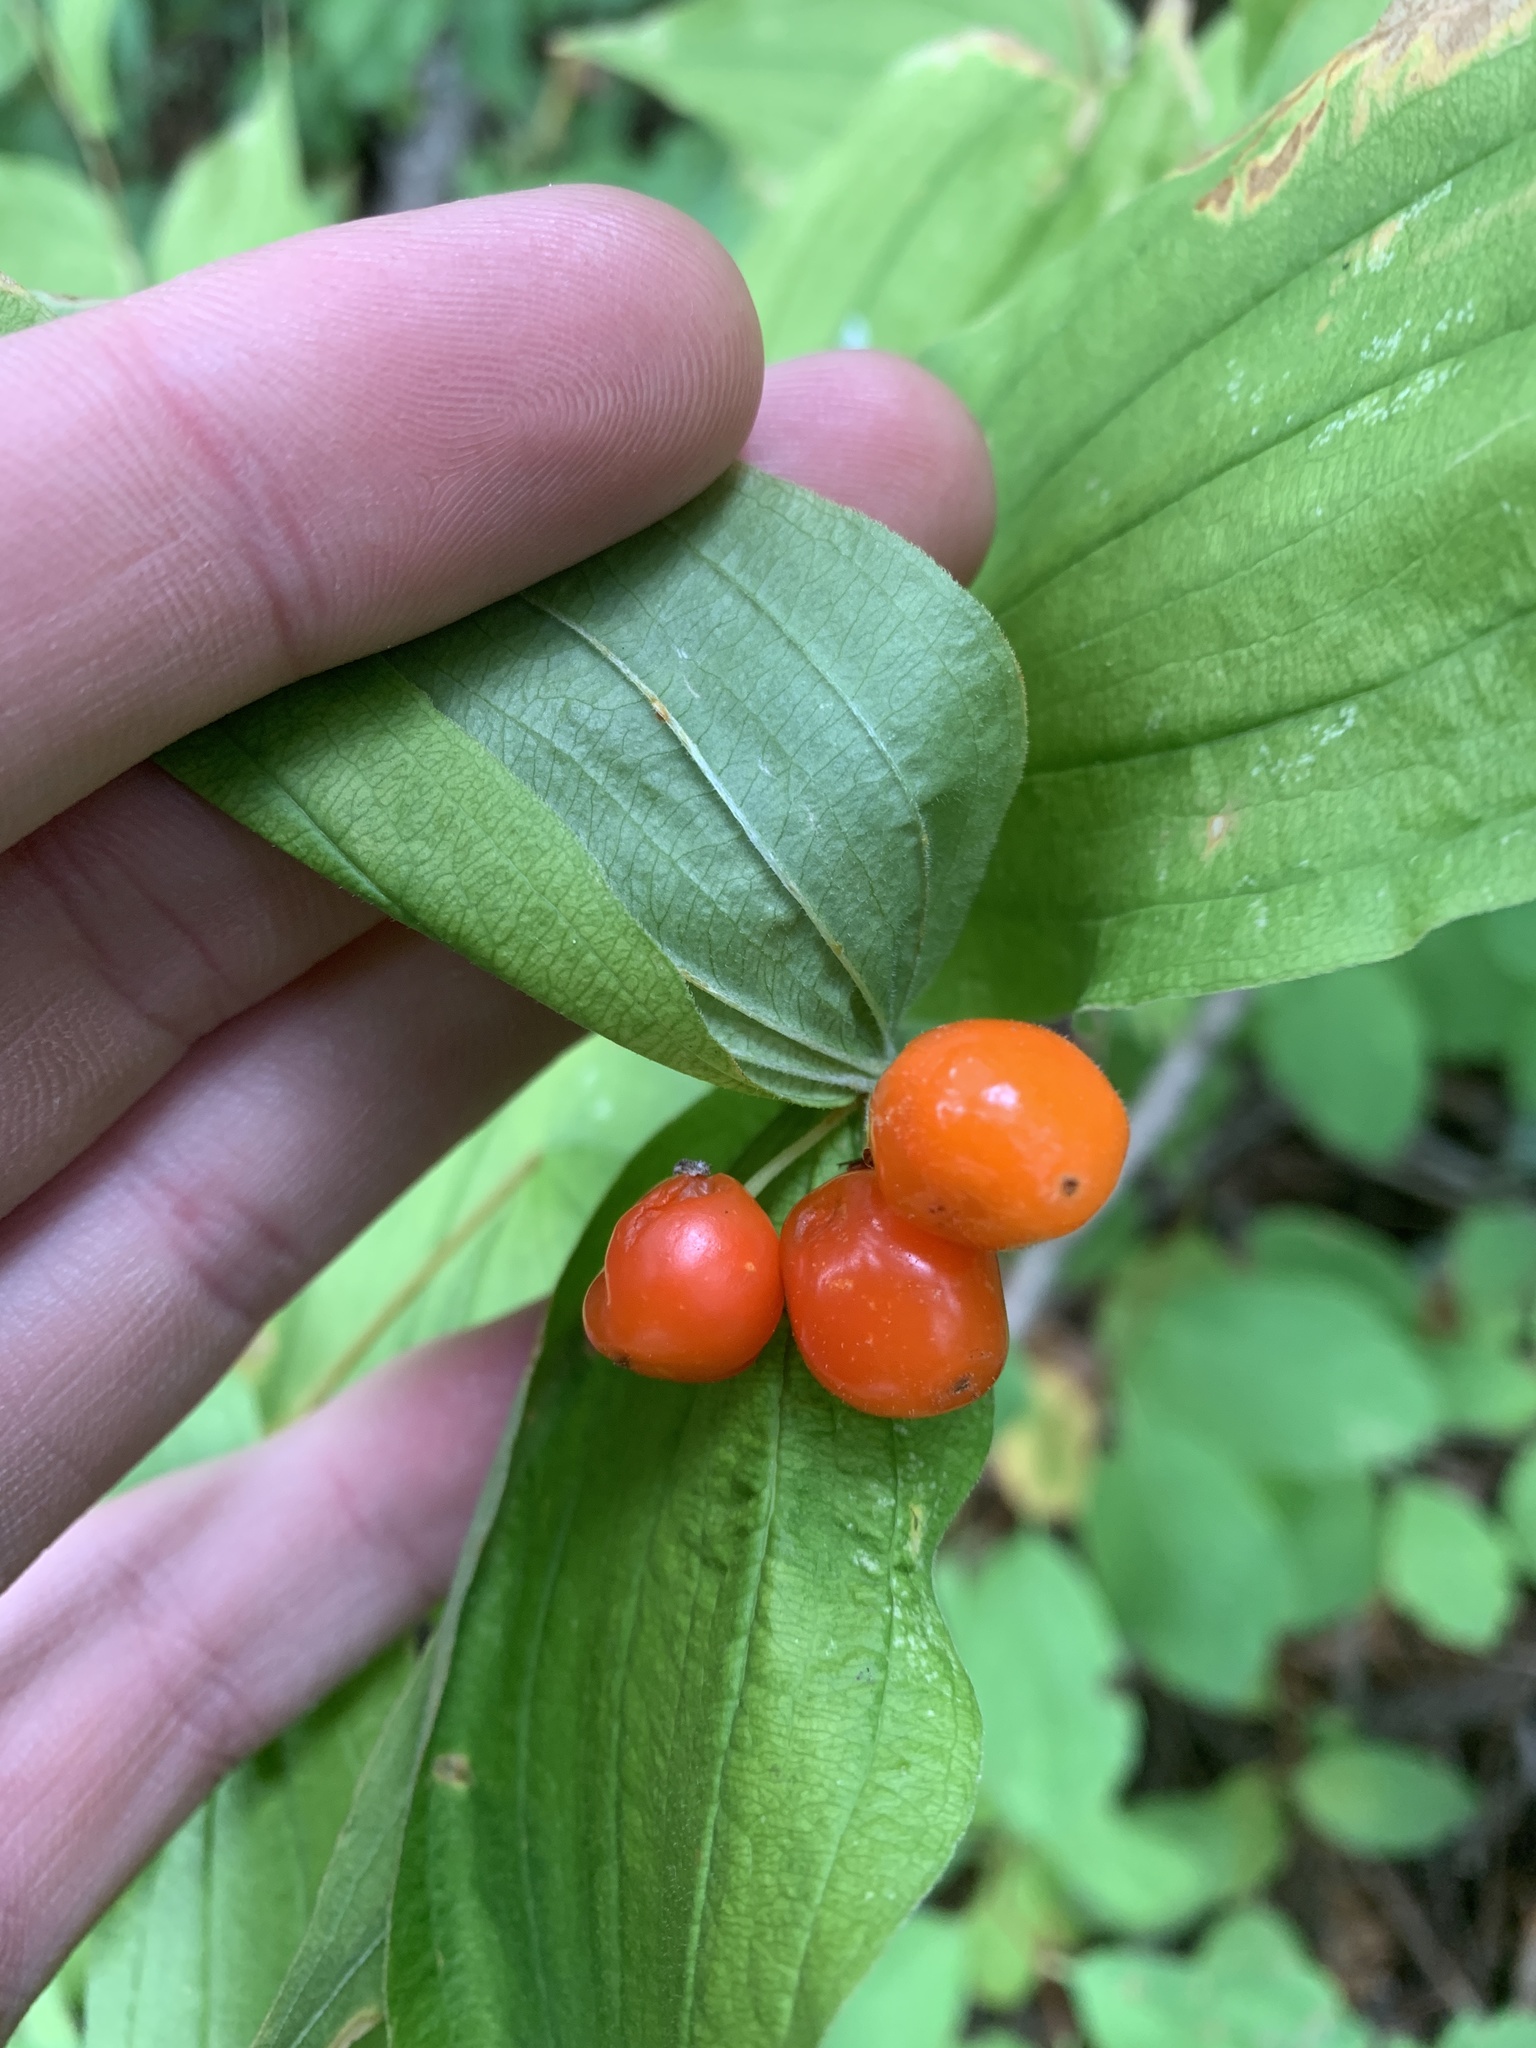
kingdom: Plantae
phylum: Tracheophyta
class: Liliopsida
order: Liliales
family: Liliaceae
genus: Prosartes
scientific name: Prosartes hookeri
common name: Fairy-bells
